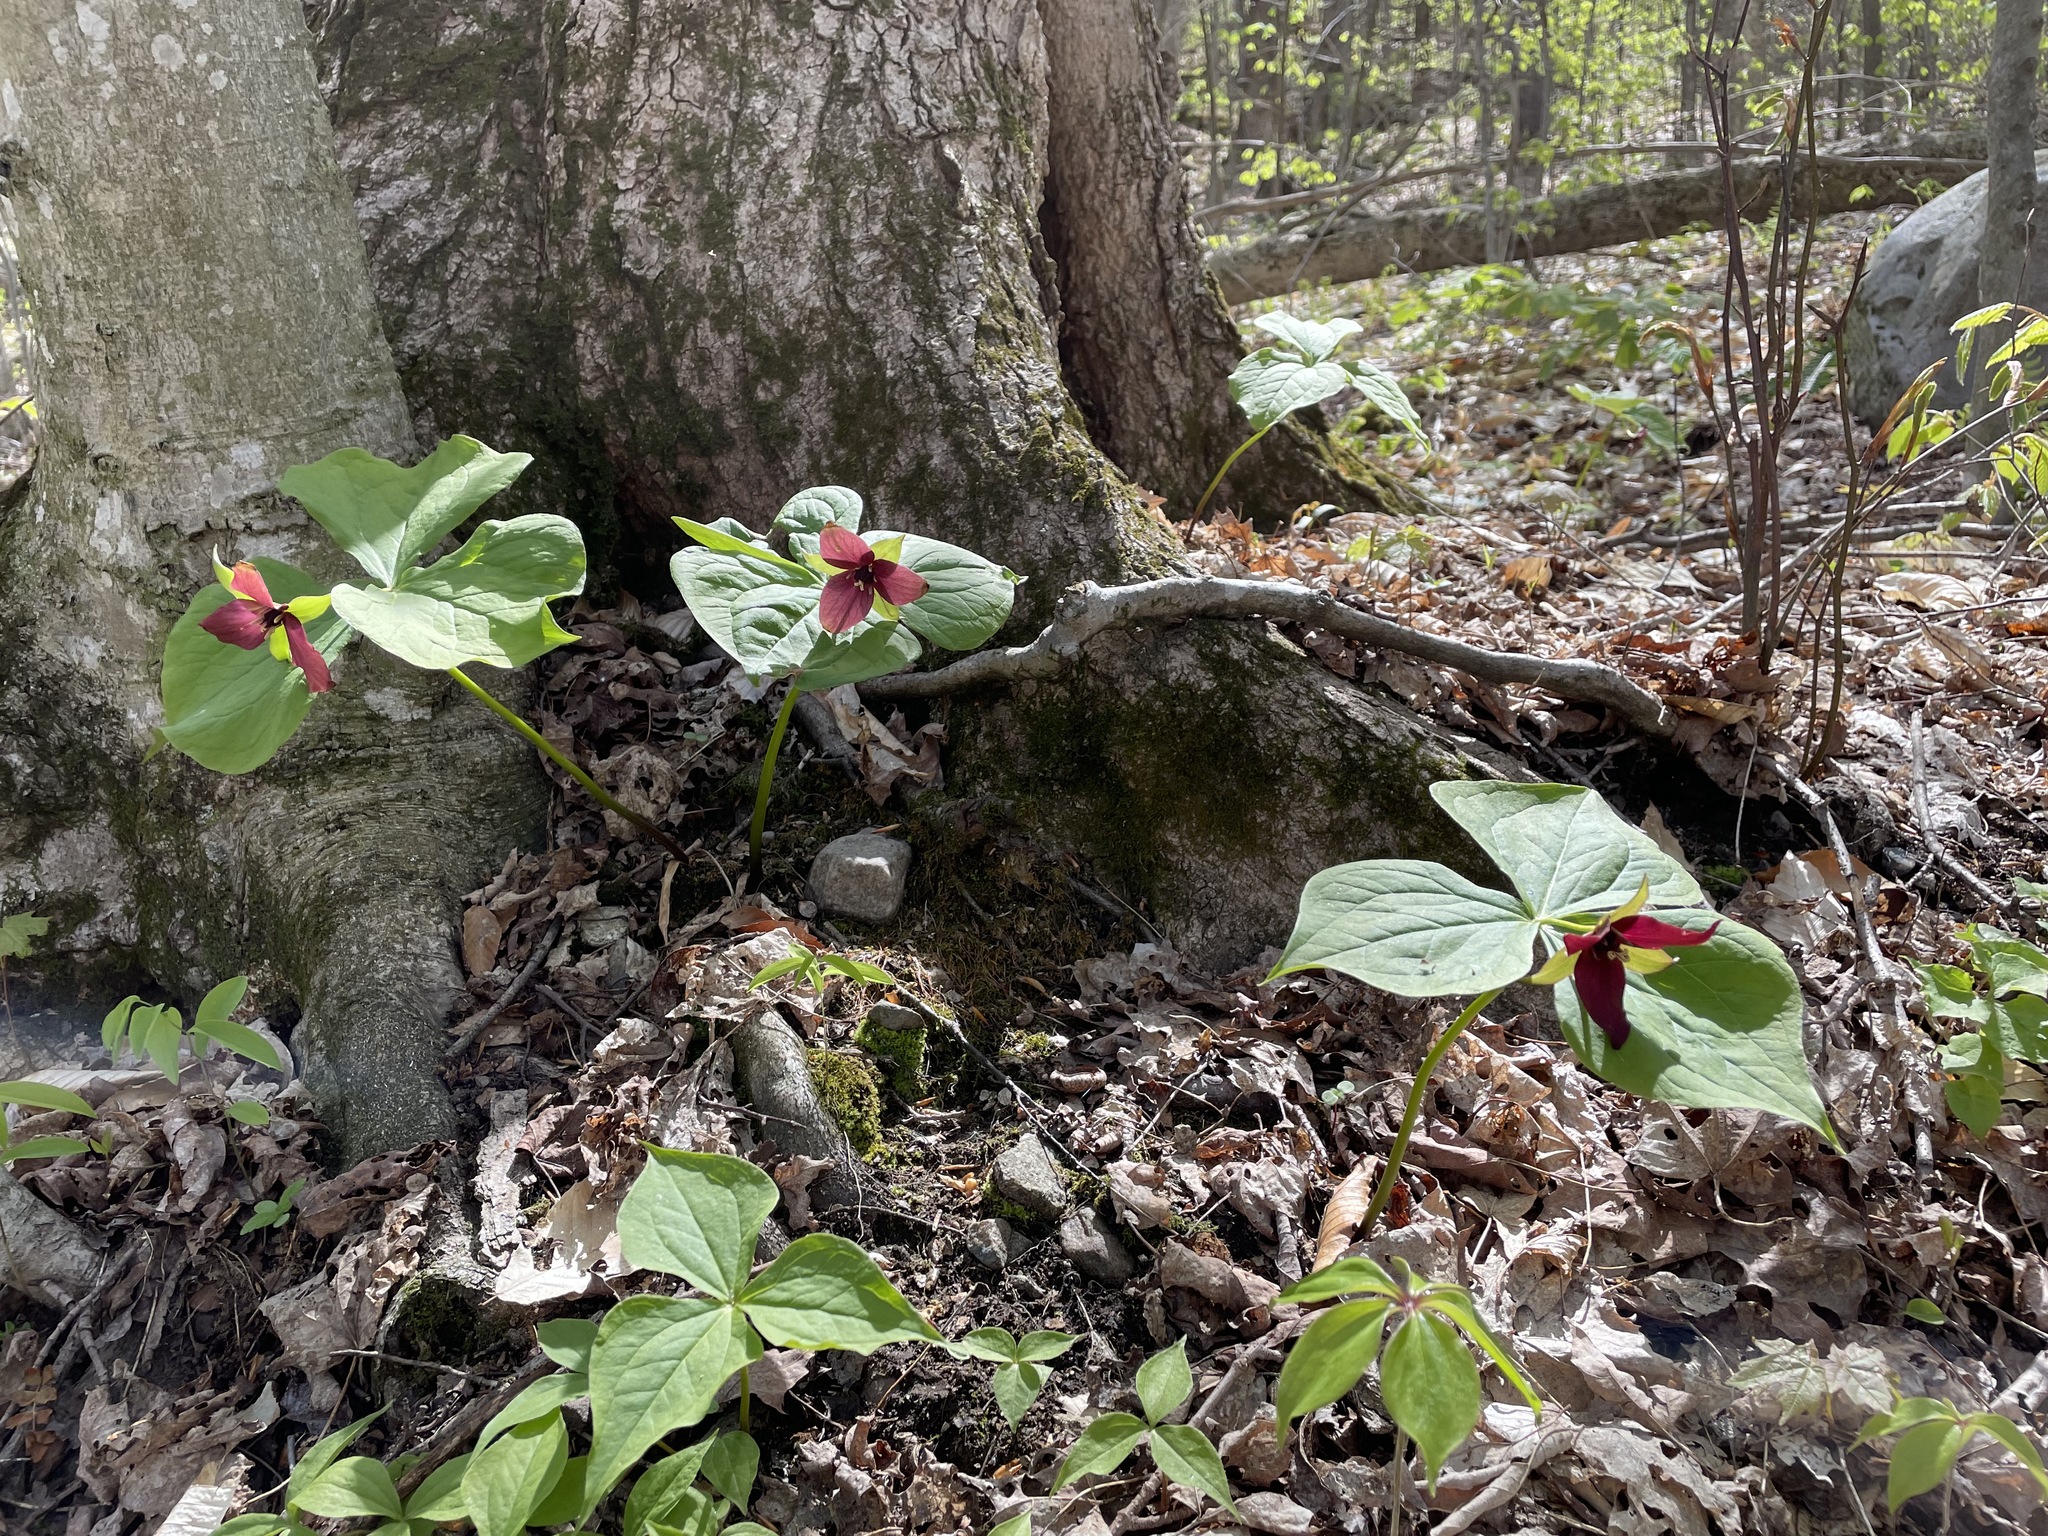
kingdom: Plantae
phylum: Tracheophyta
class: Liliopsida
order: Liliales
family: Melanthiaceae
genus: Trillium
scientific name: Trillium erectum
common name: Purple trillium
